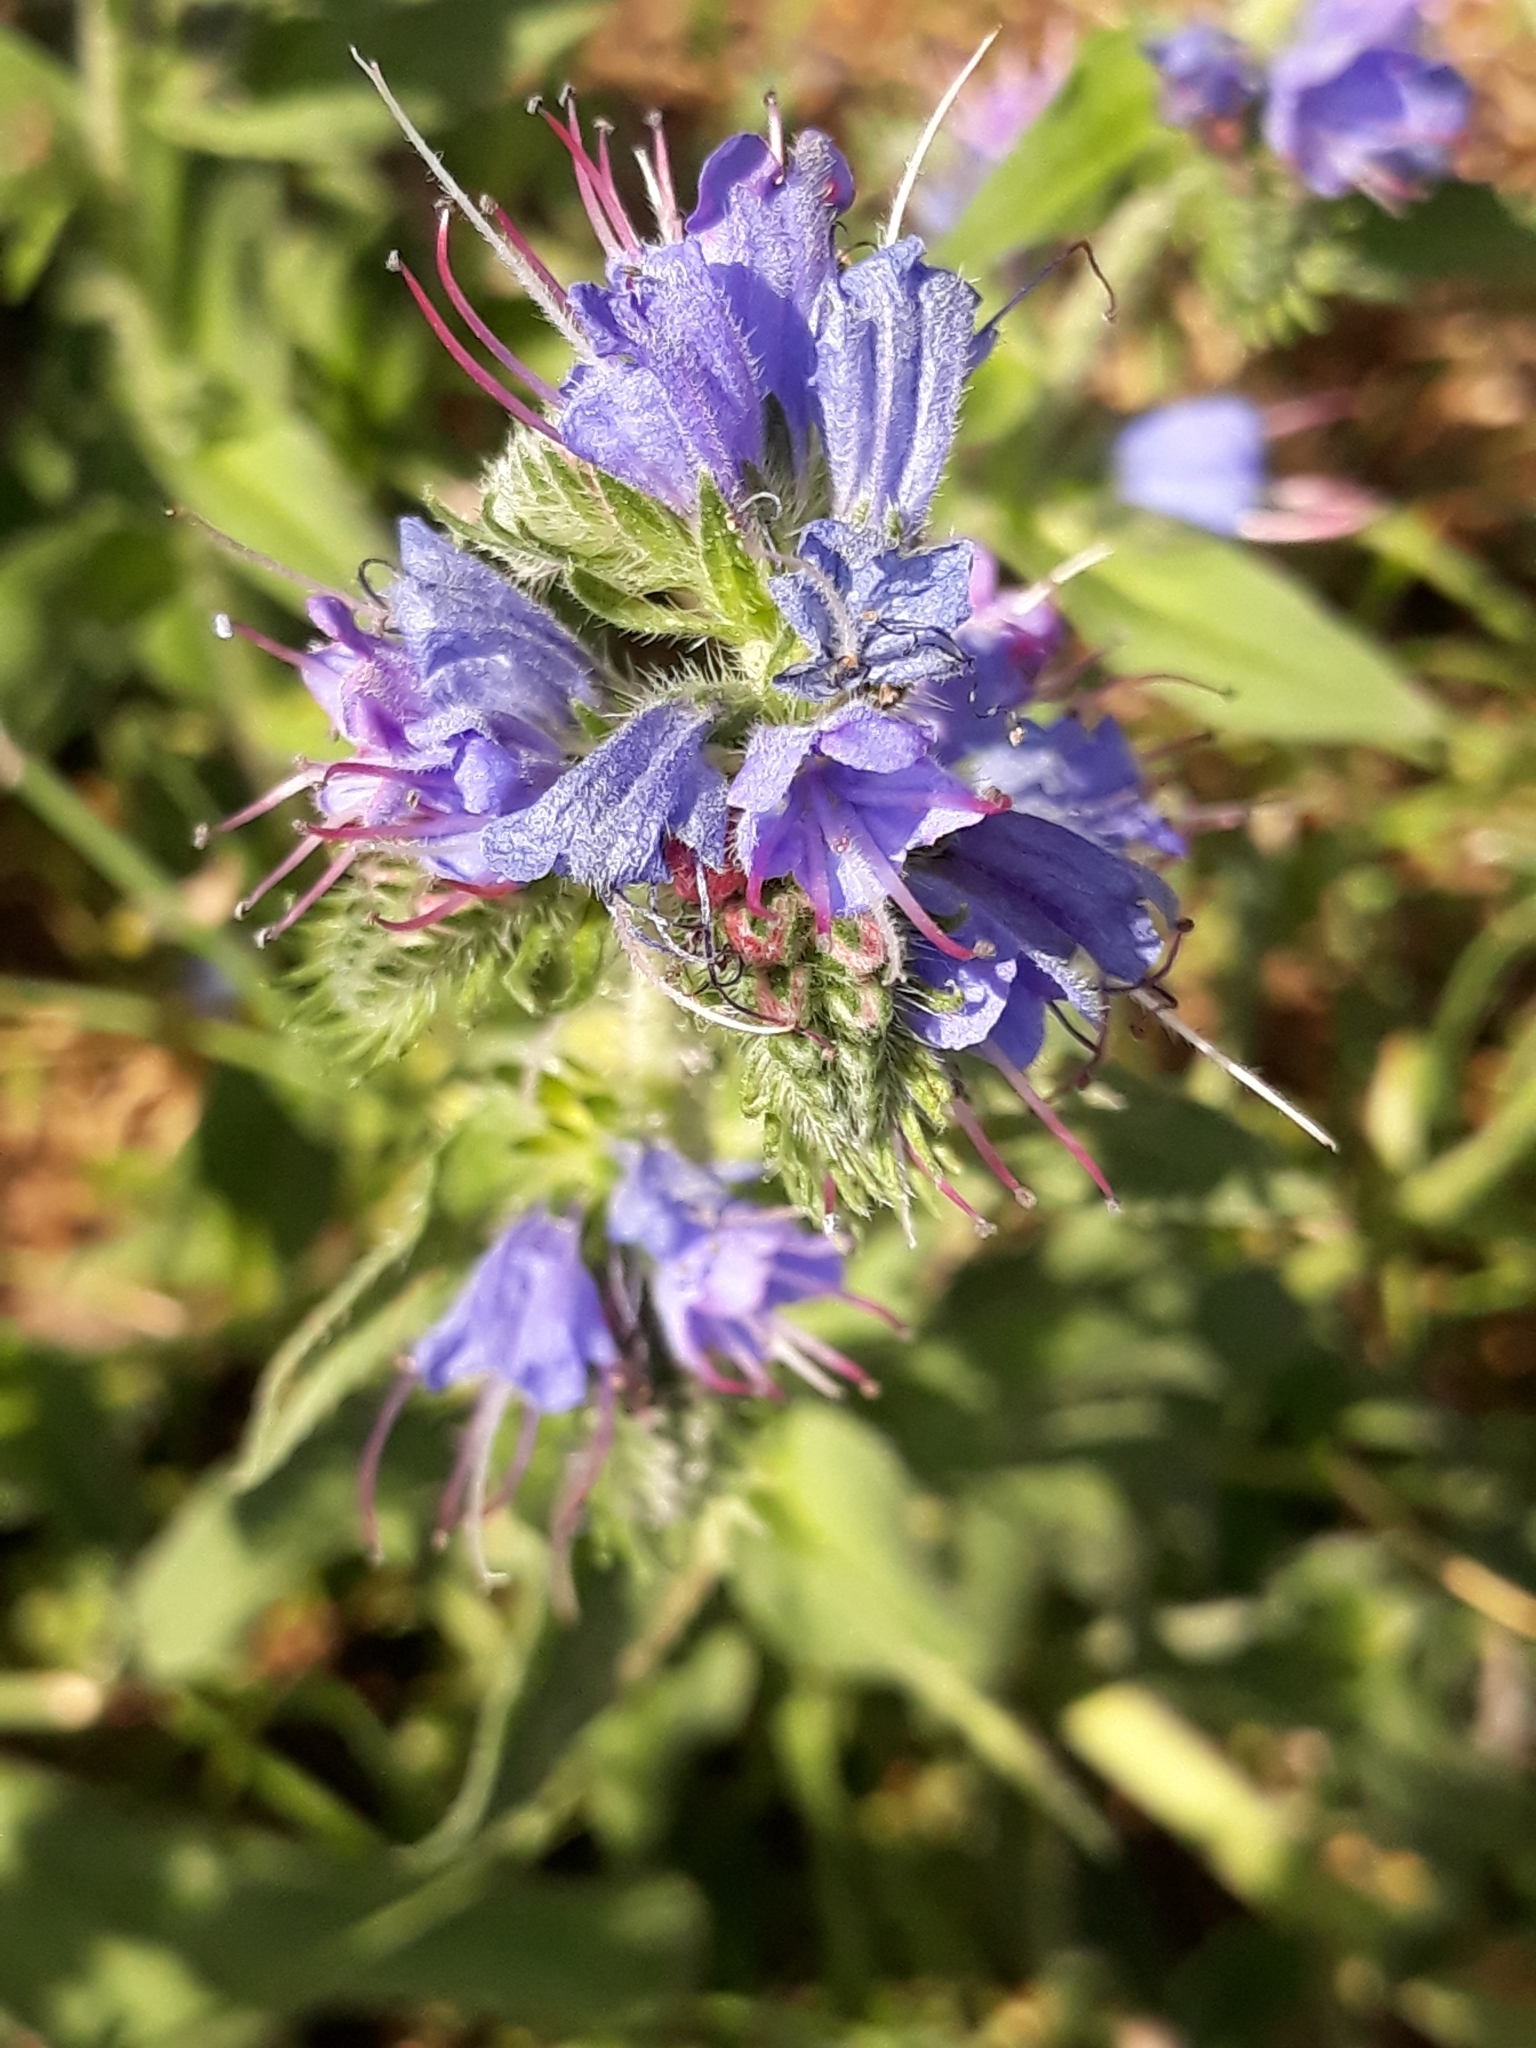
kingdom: Plantae
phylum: Tracheophyta
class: Magnoliopsida
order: Boraginales
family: Boraginaceae
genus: Echium
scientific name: Echium vulgare
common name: Common viper's bugloss
